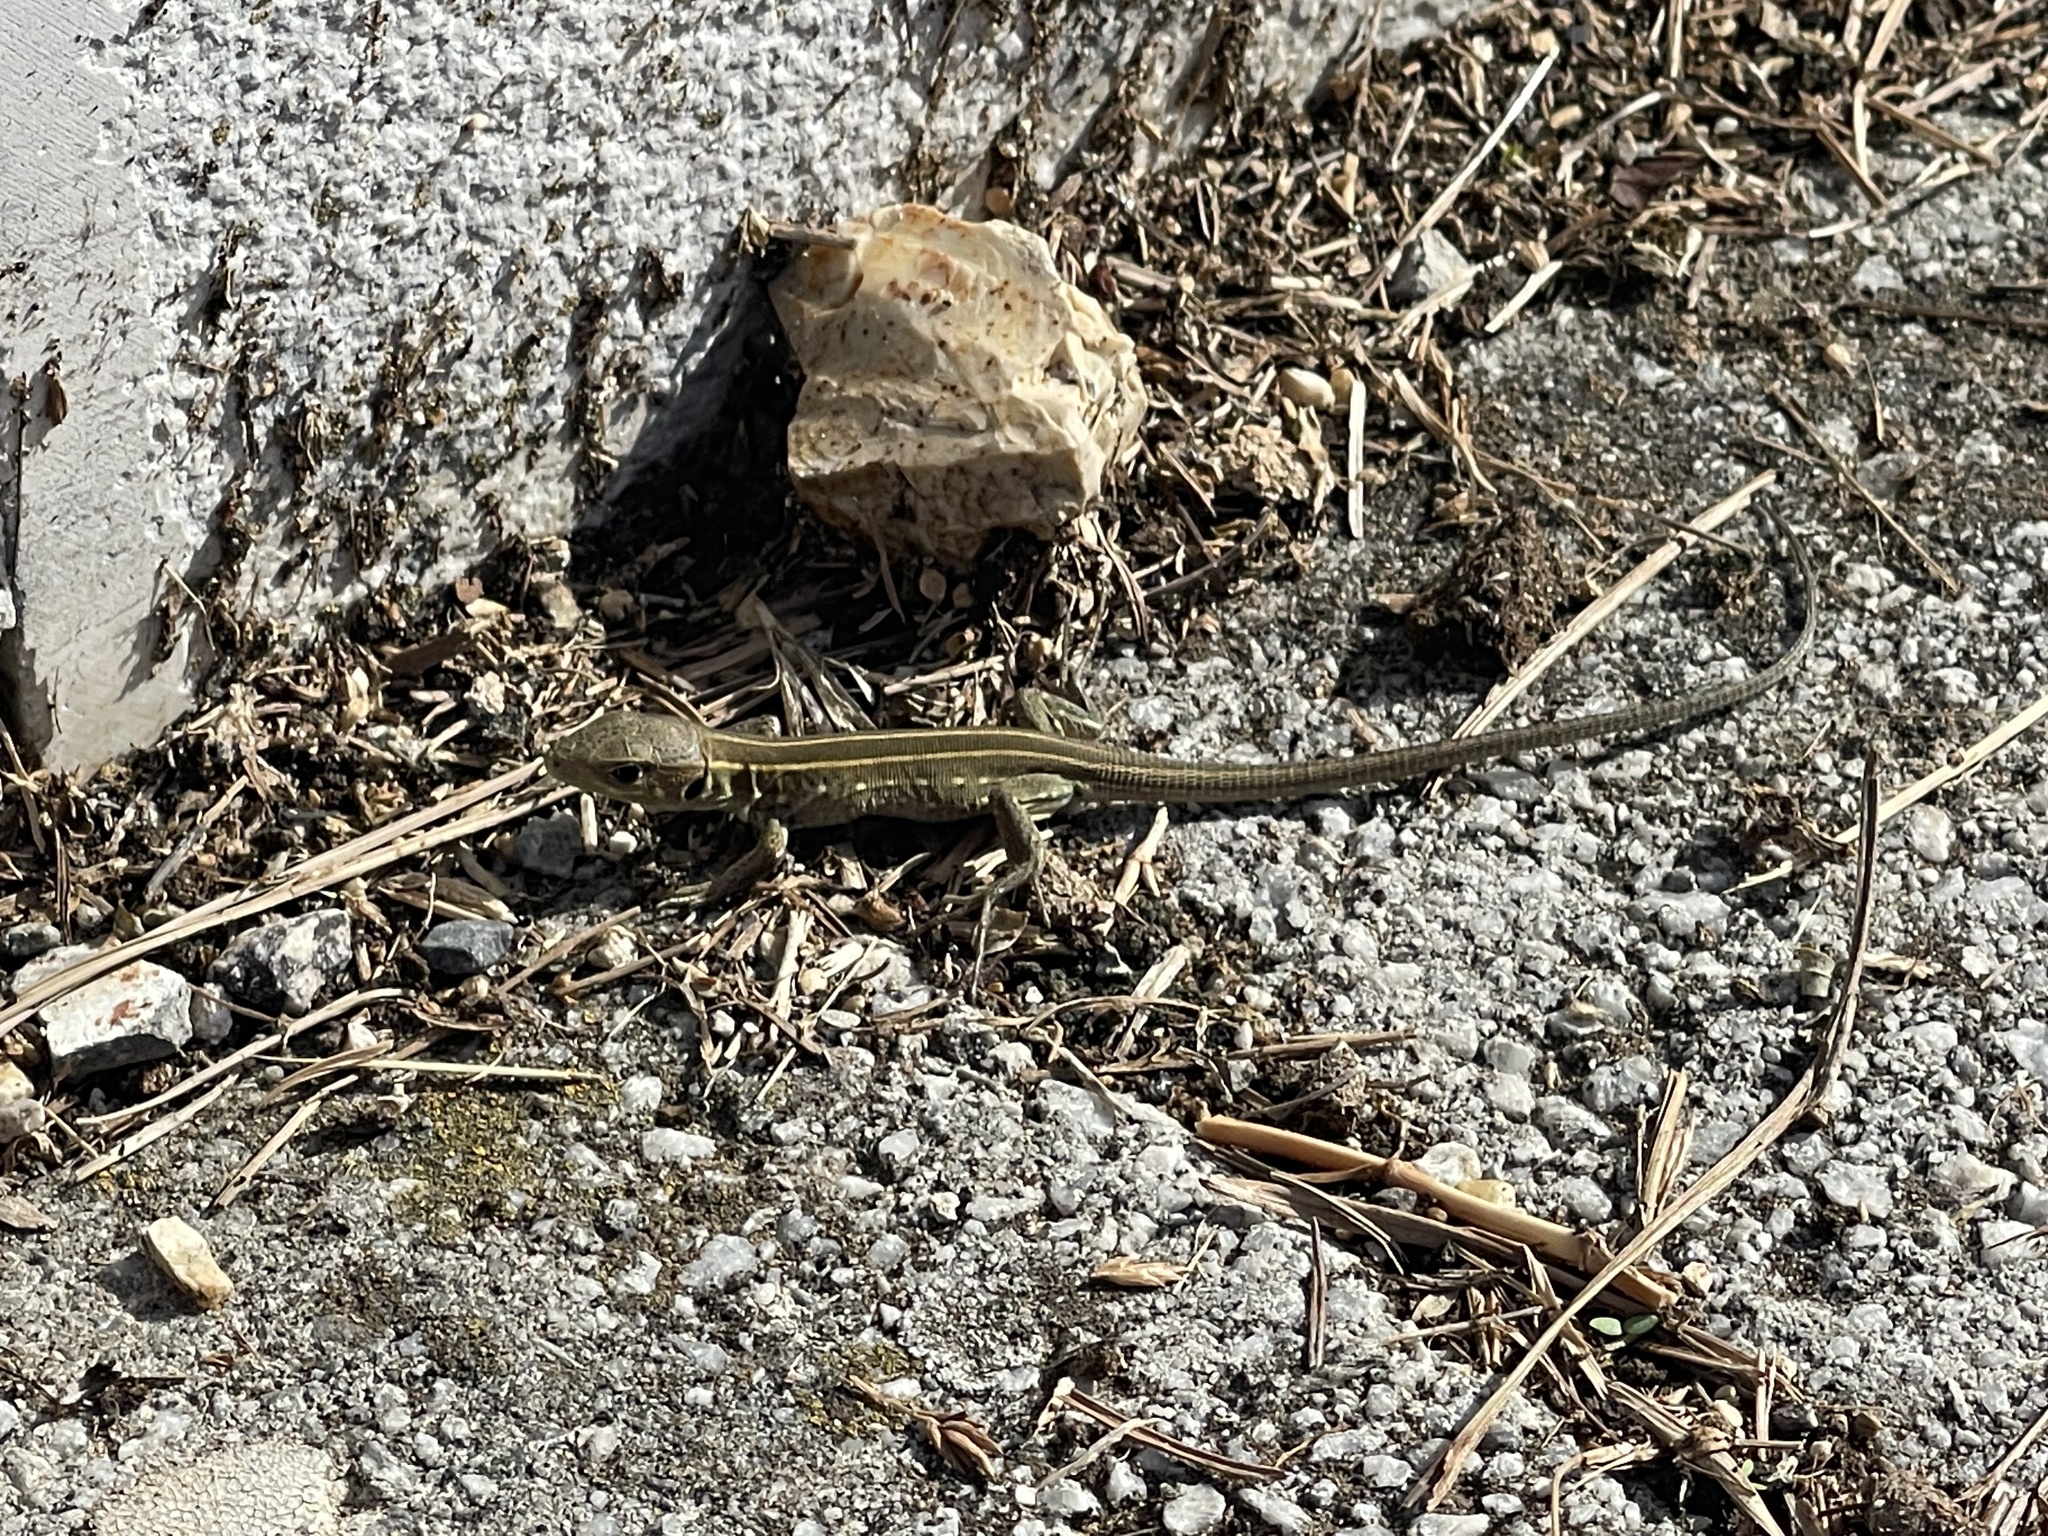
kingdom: Animalia
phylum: Chordata
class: Squamata
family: Lacertidae
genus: Lacerta
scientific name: Lacerta trilineata
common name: Balkan green lizard
